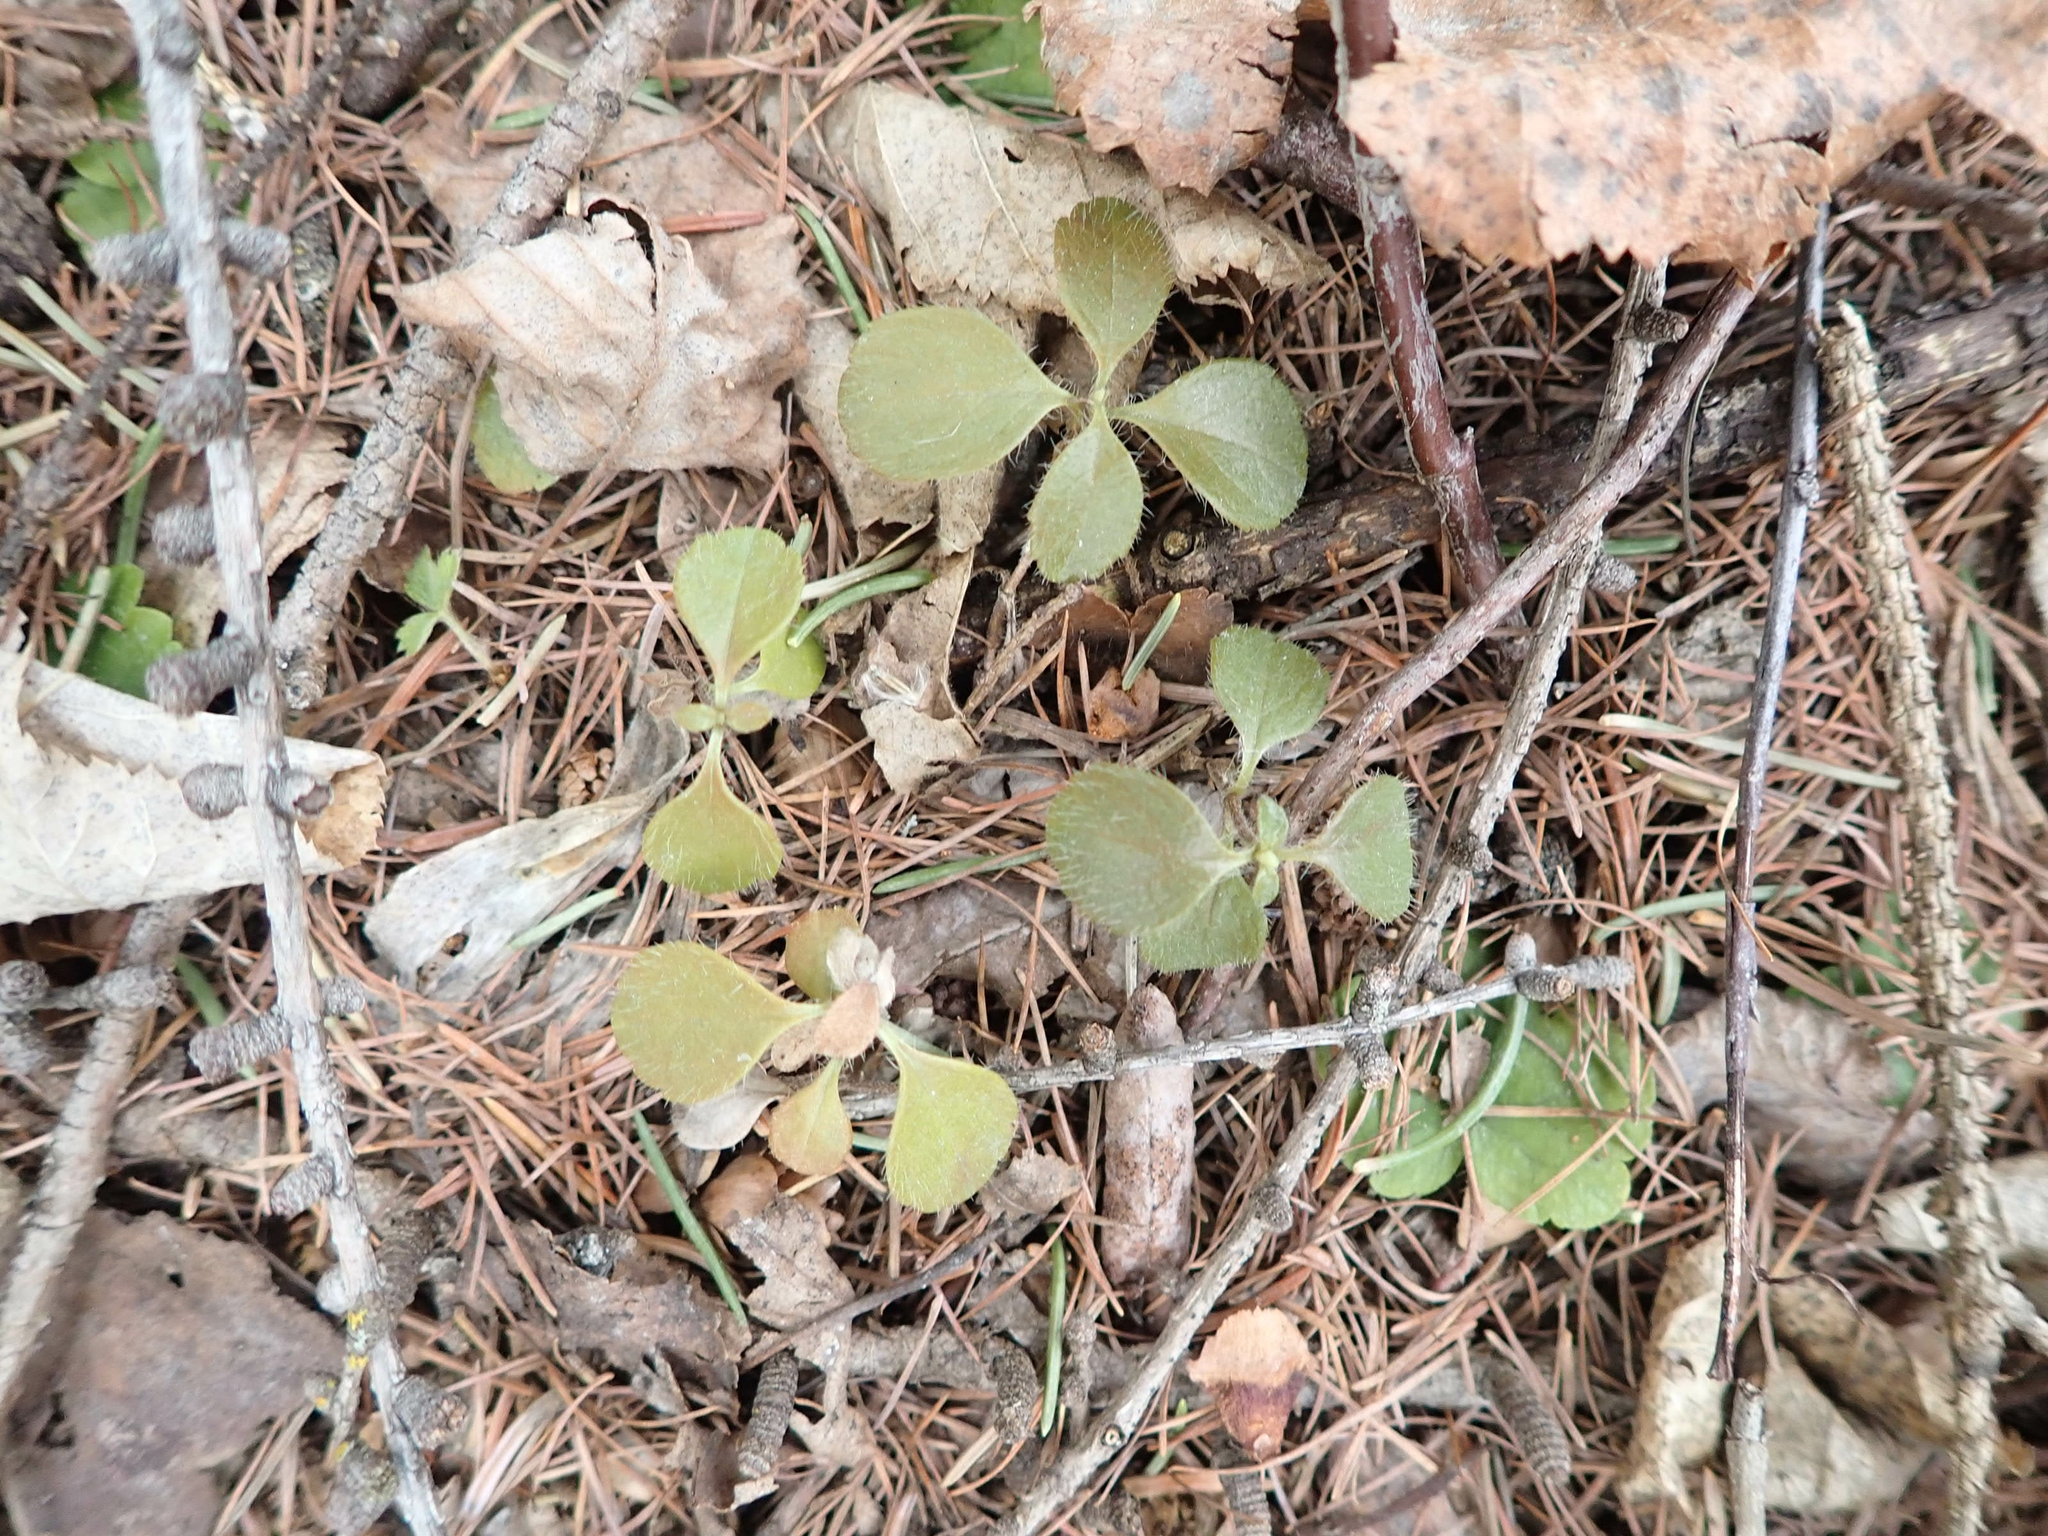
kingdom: Plantae
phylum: Tracheophyta
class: Magnoliopsida
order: Dipsacales
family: Caprifoliaceae
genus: Linnaea
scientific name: Linnaea borealis
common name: Twinflower
